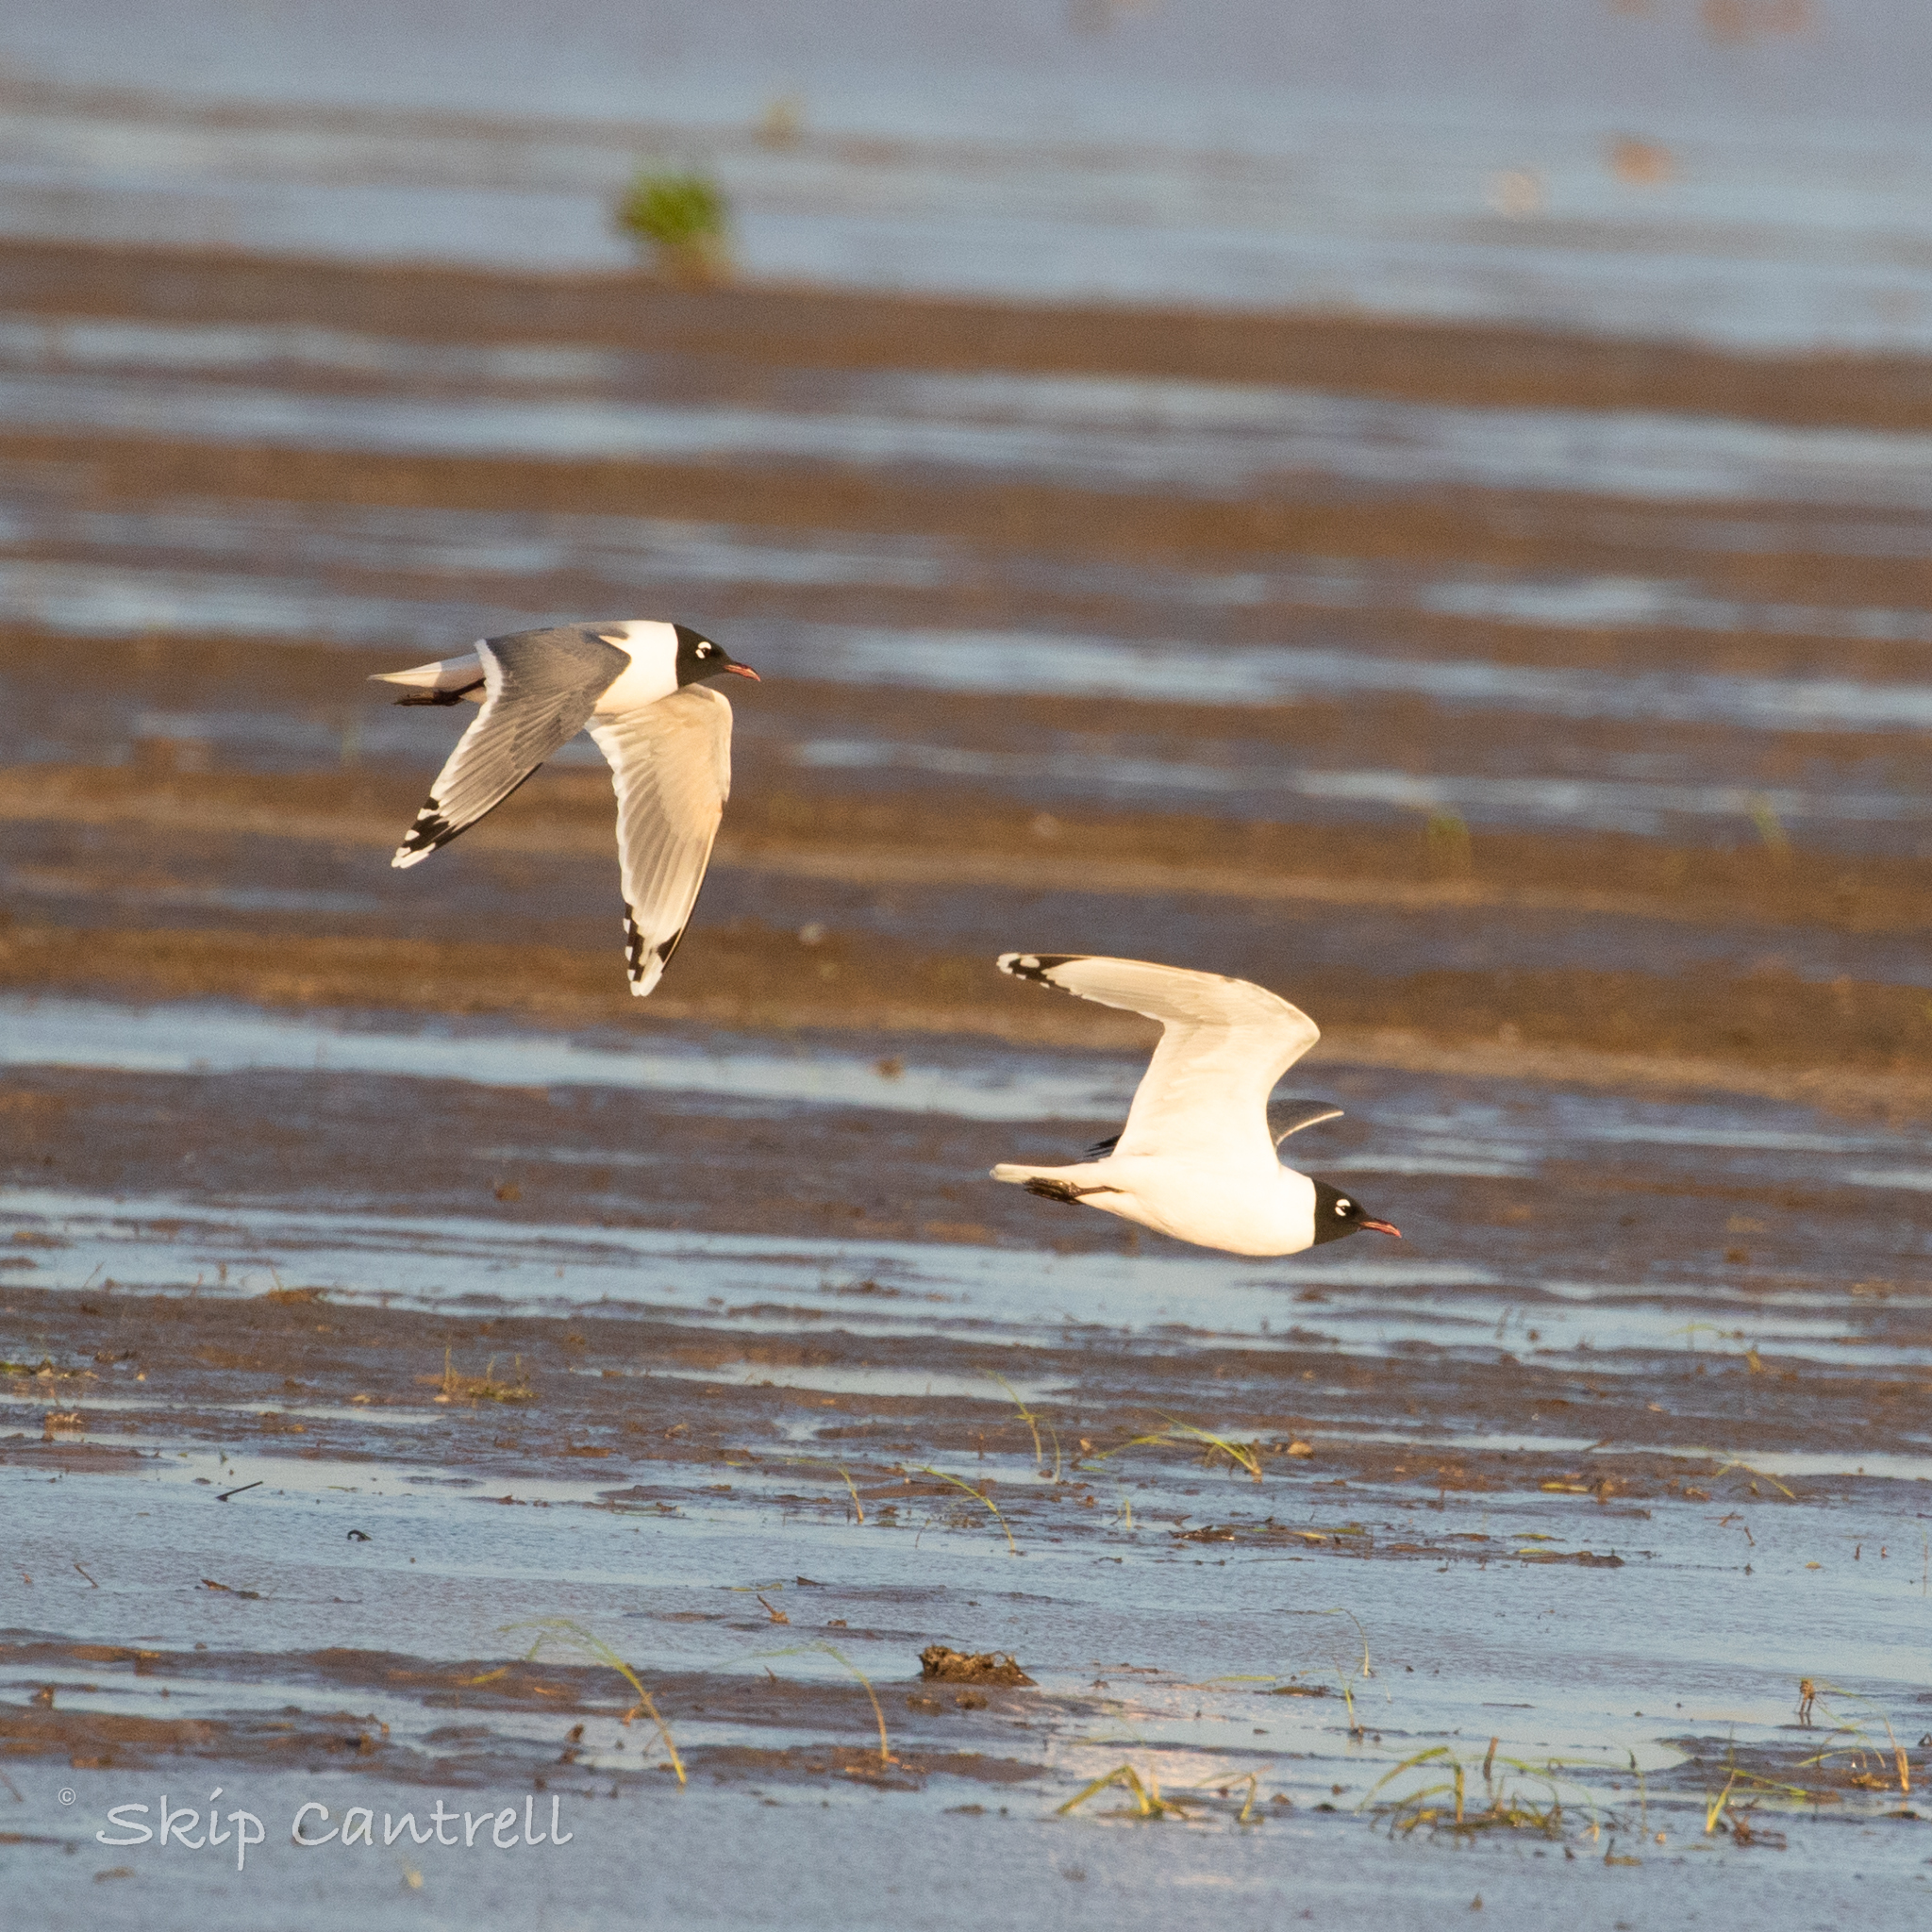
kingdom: Animalia
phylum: Chordata
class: Aves
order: Charadriiformes
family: Laridae
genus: Leucophaeus
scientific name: Leucophaeus pipixcan
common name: Franklin's gull
